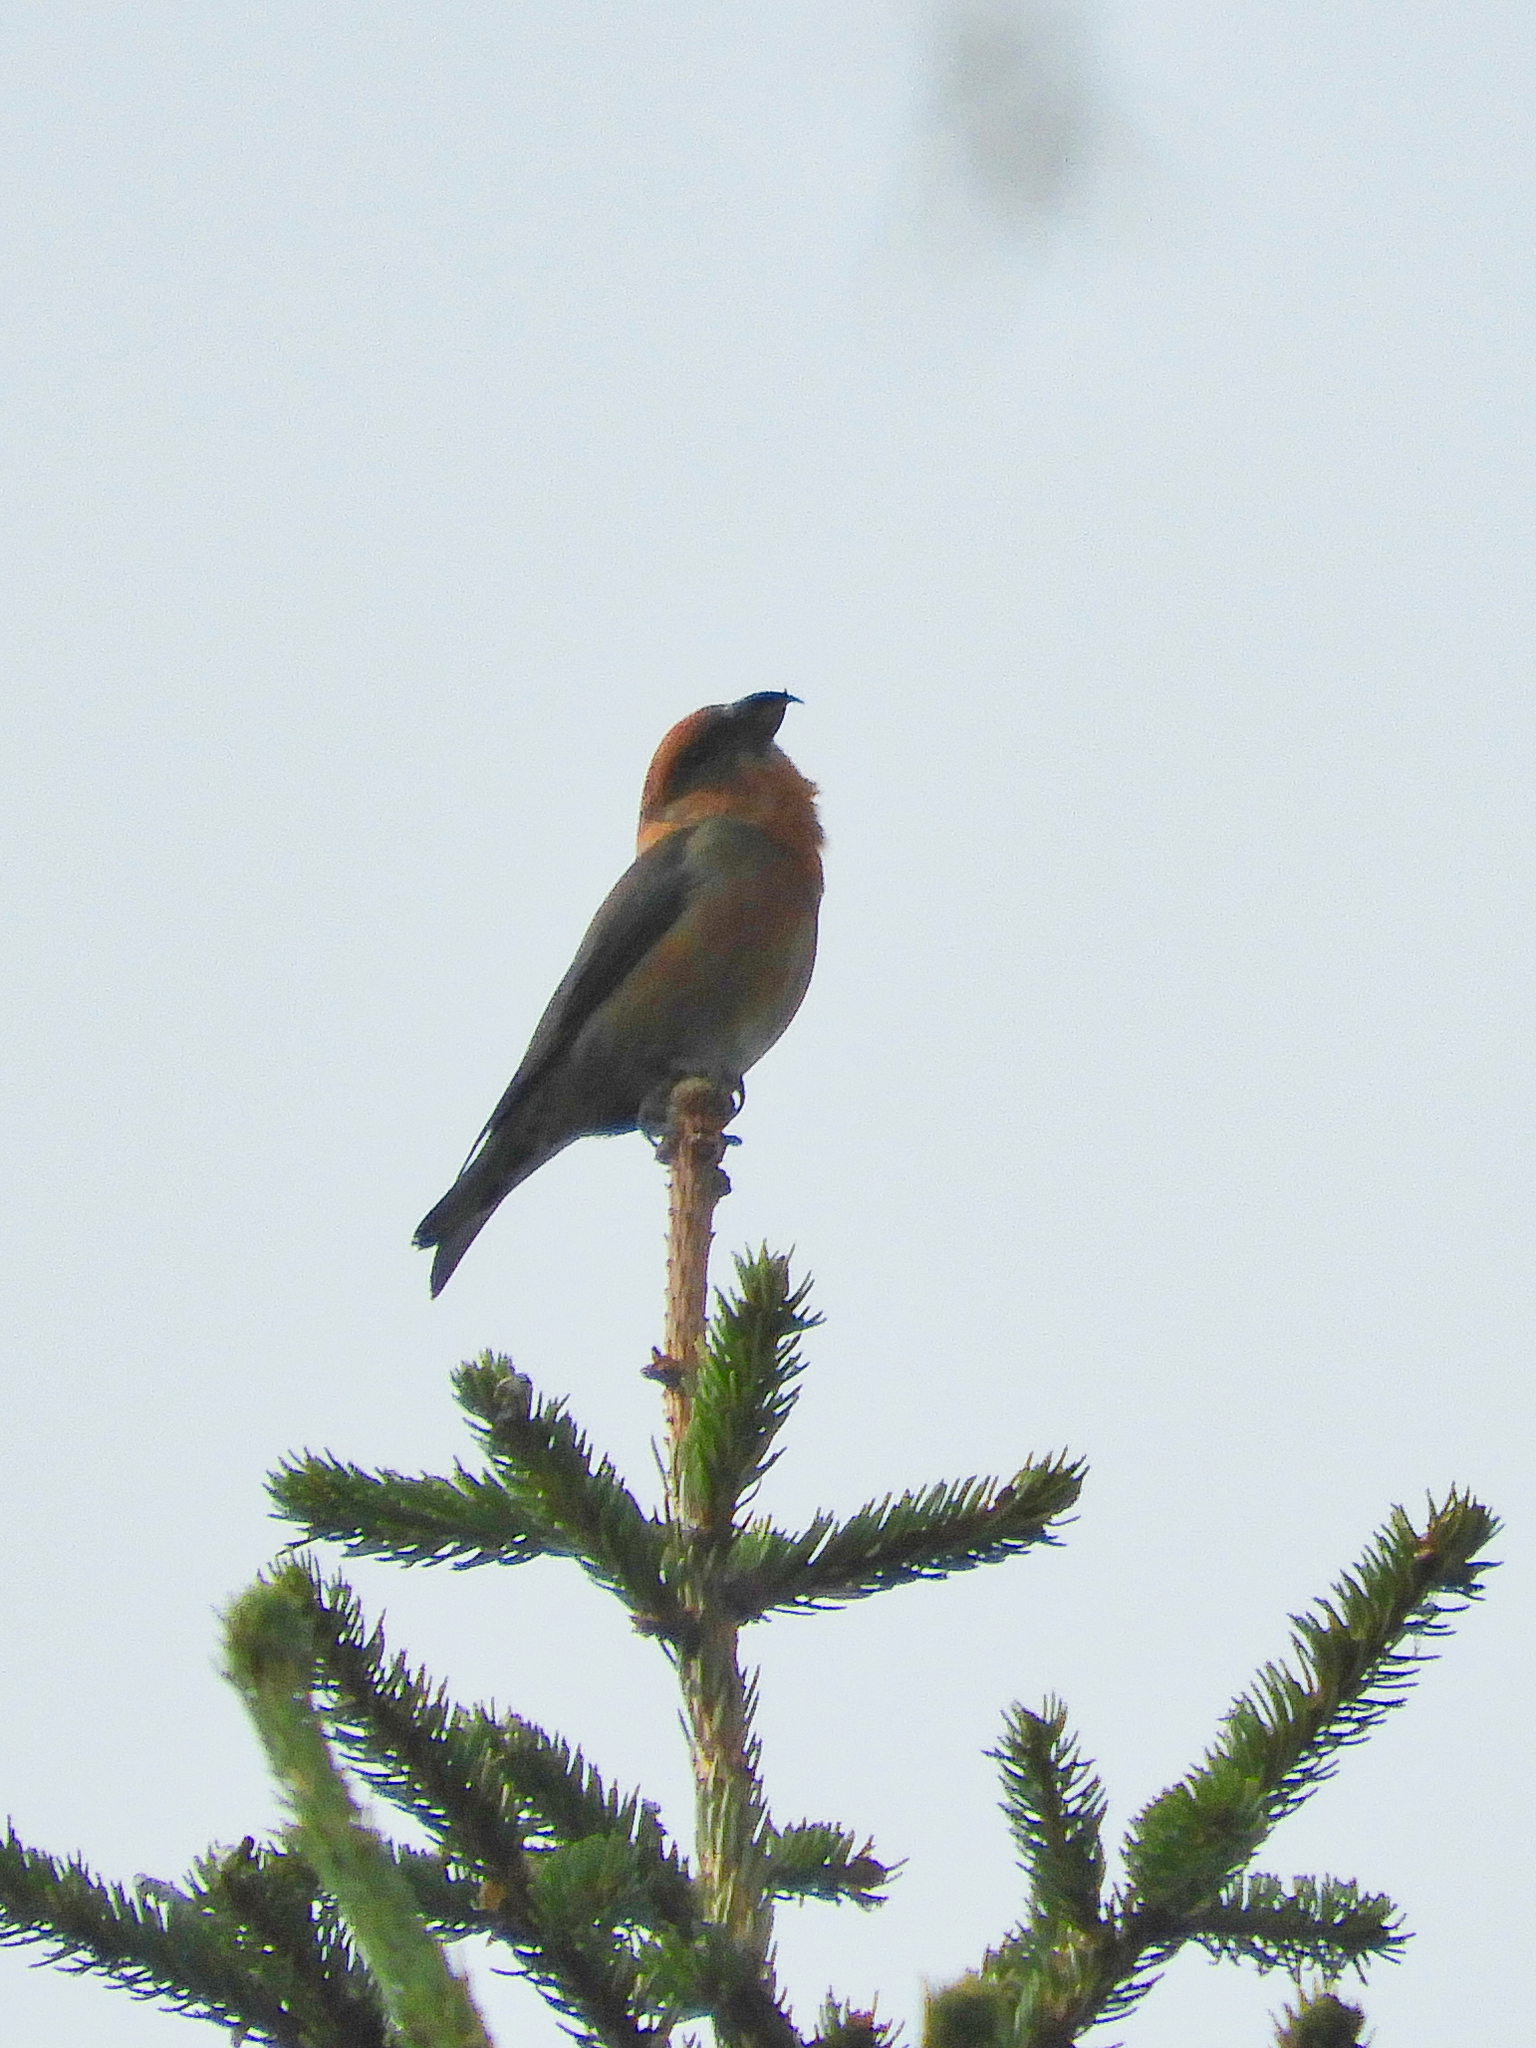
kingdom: Animalia
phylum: Chordata
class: Aves
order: Passeriformes
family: Fringillidae
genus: Loxia
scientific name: Loxia curvirostra
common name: Red crossbill
